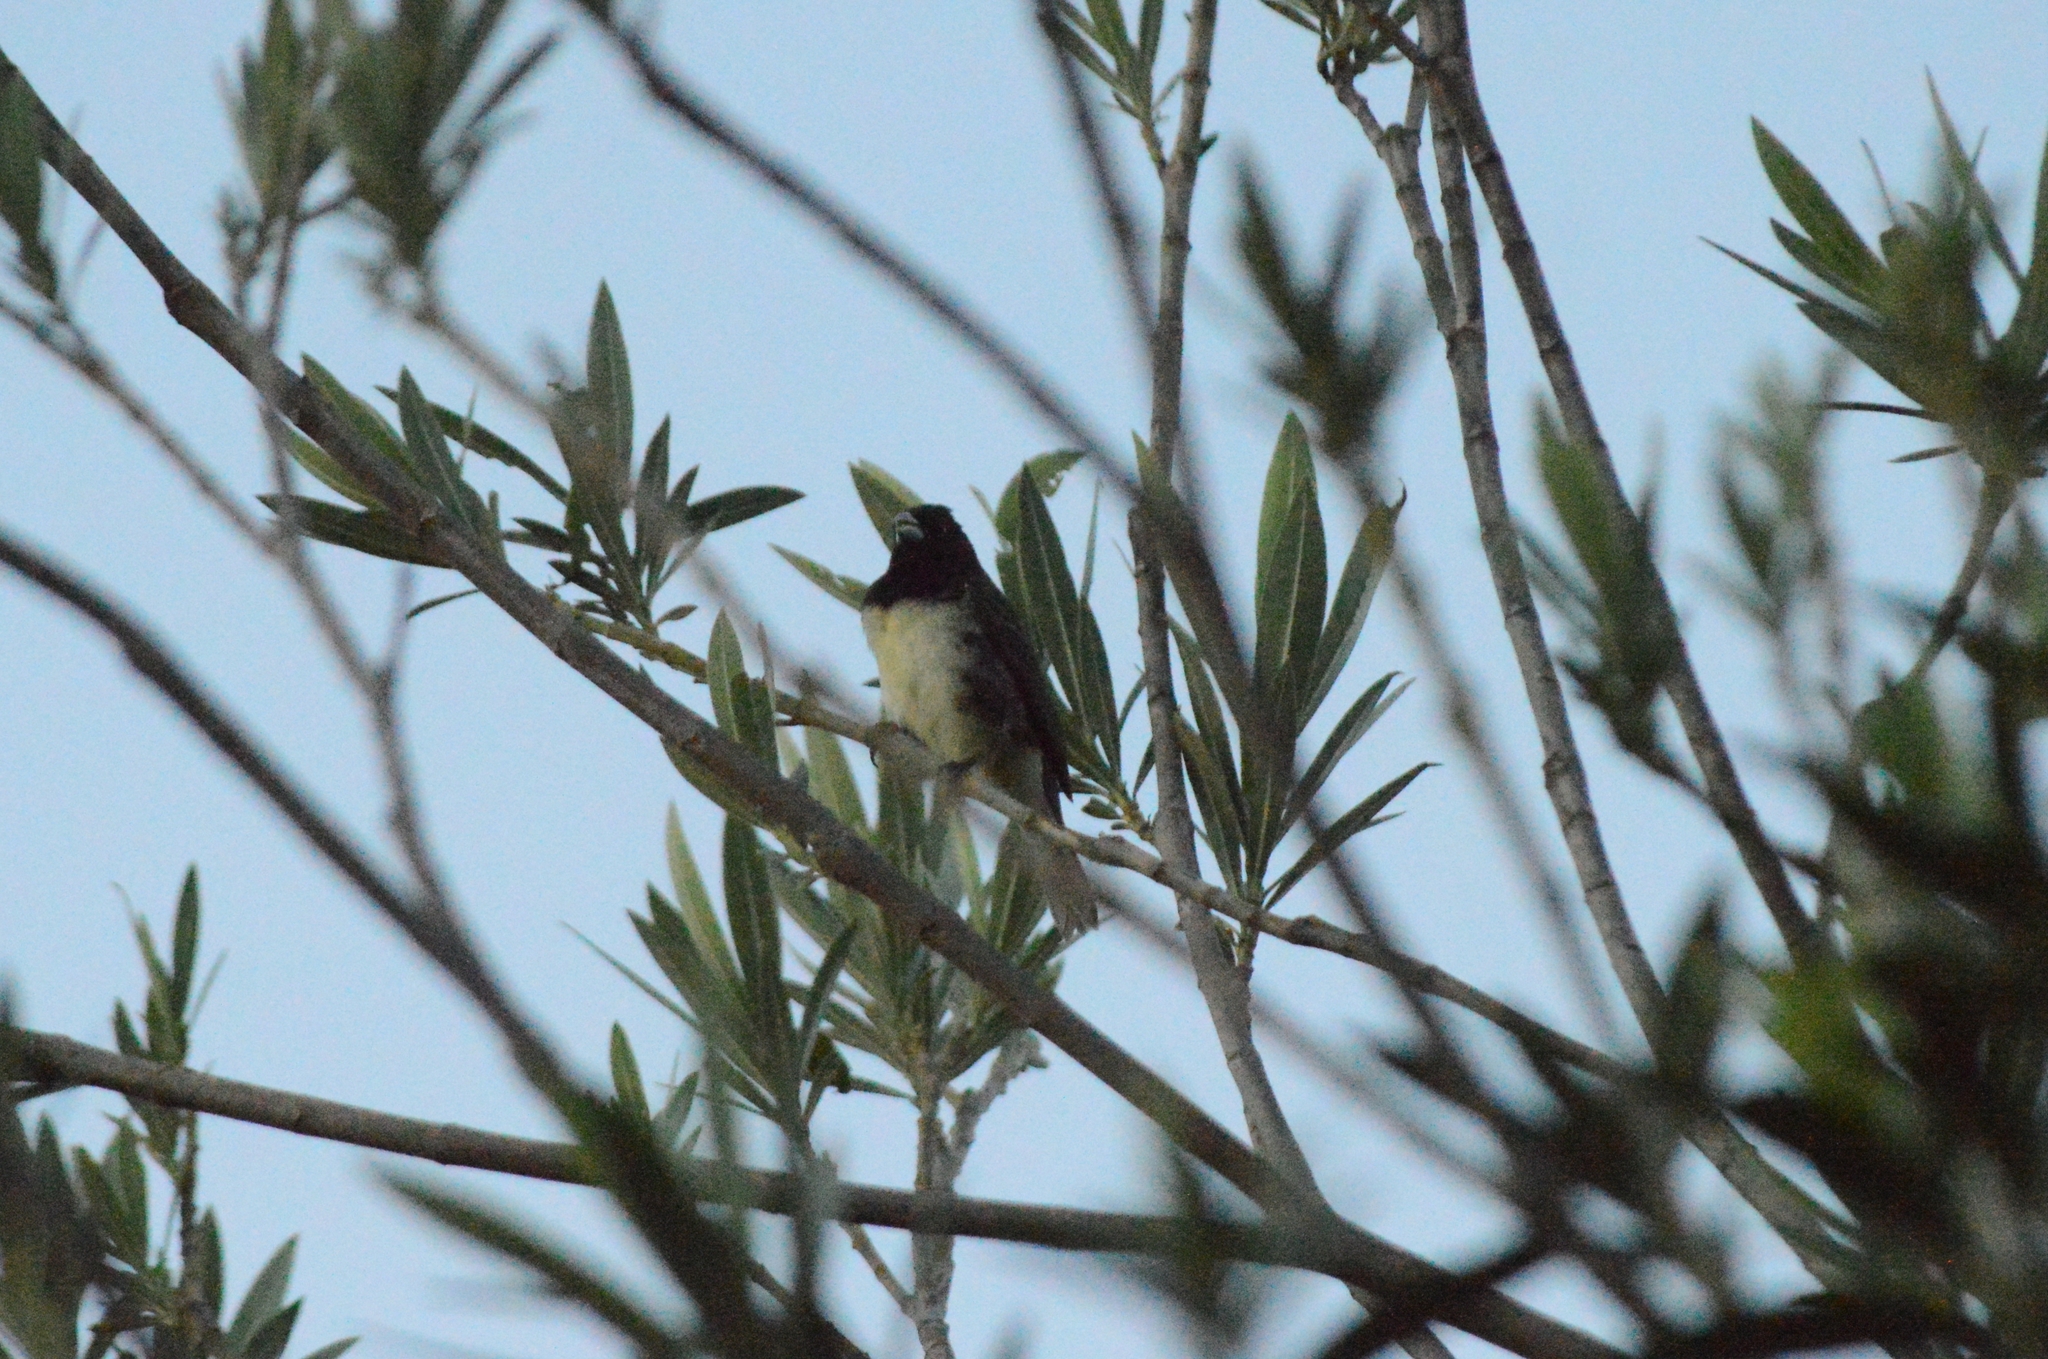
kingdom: Animalia
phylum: Chordata
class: Aves
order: Passeriformes
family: Thraupidae
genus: Sporophila
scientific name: Sporophila nigricollis
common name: Yellow-bellied seedeater
